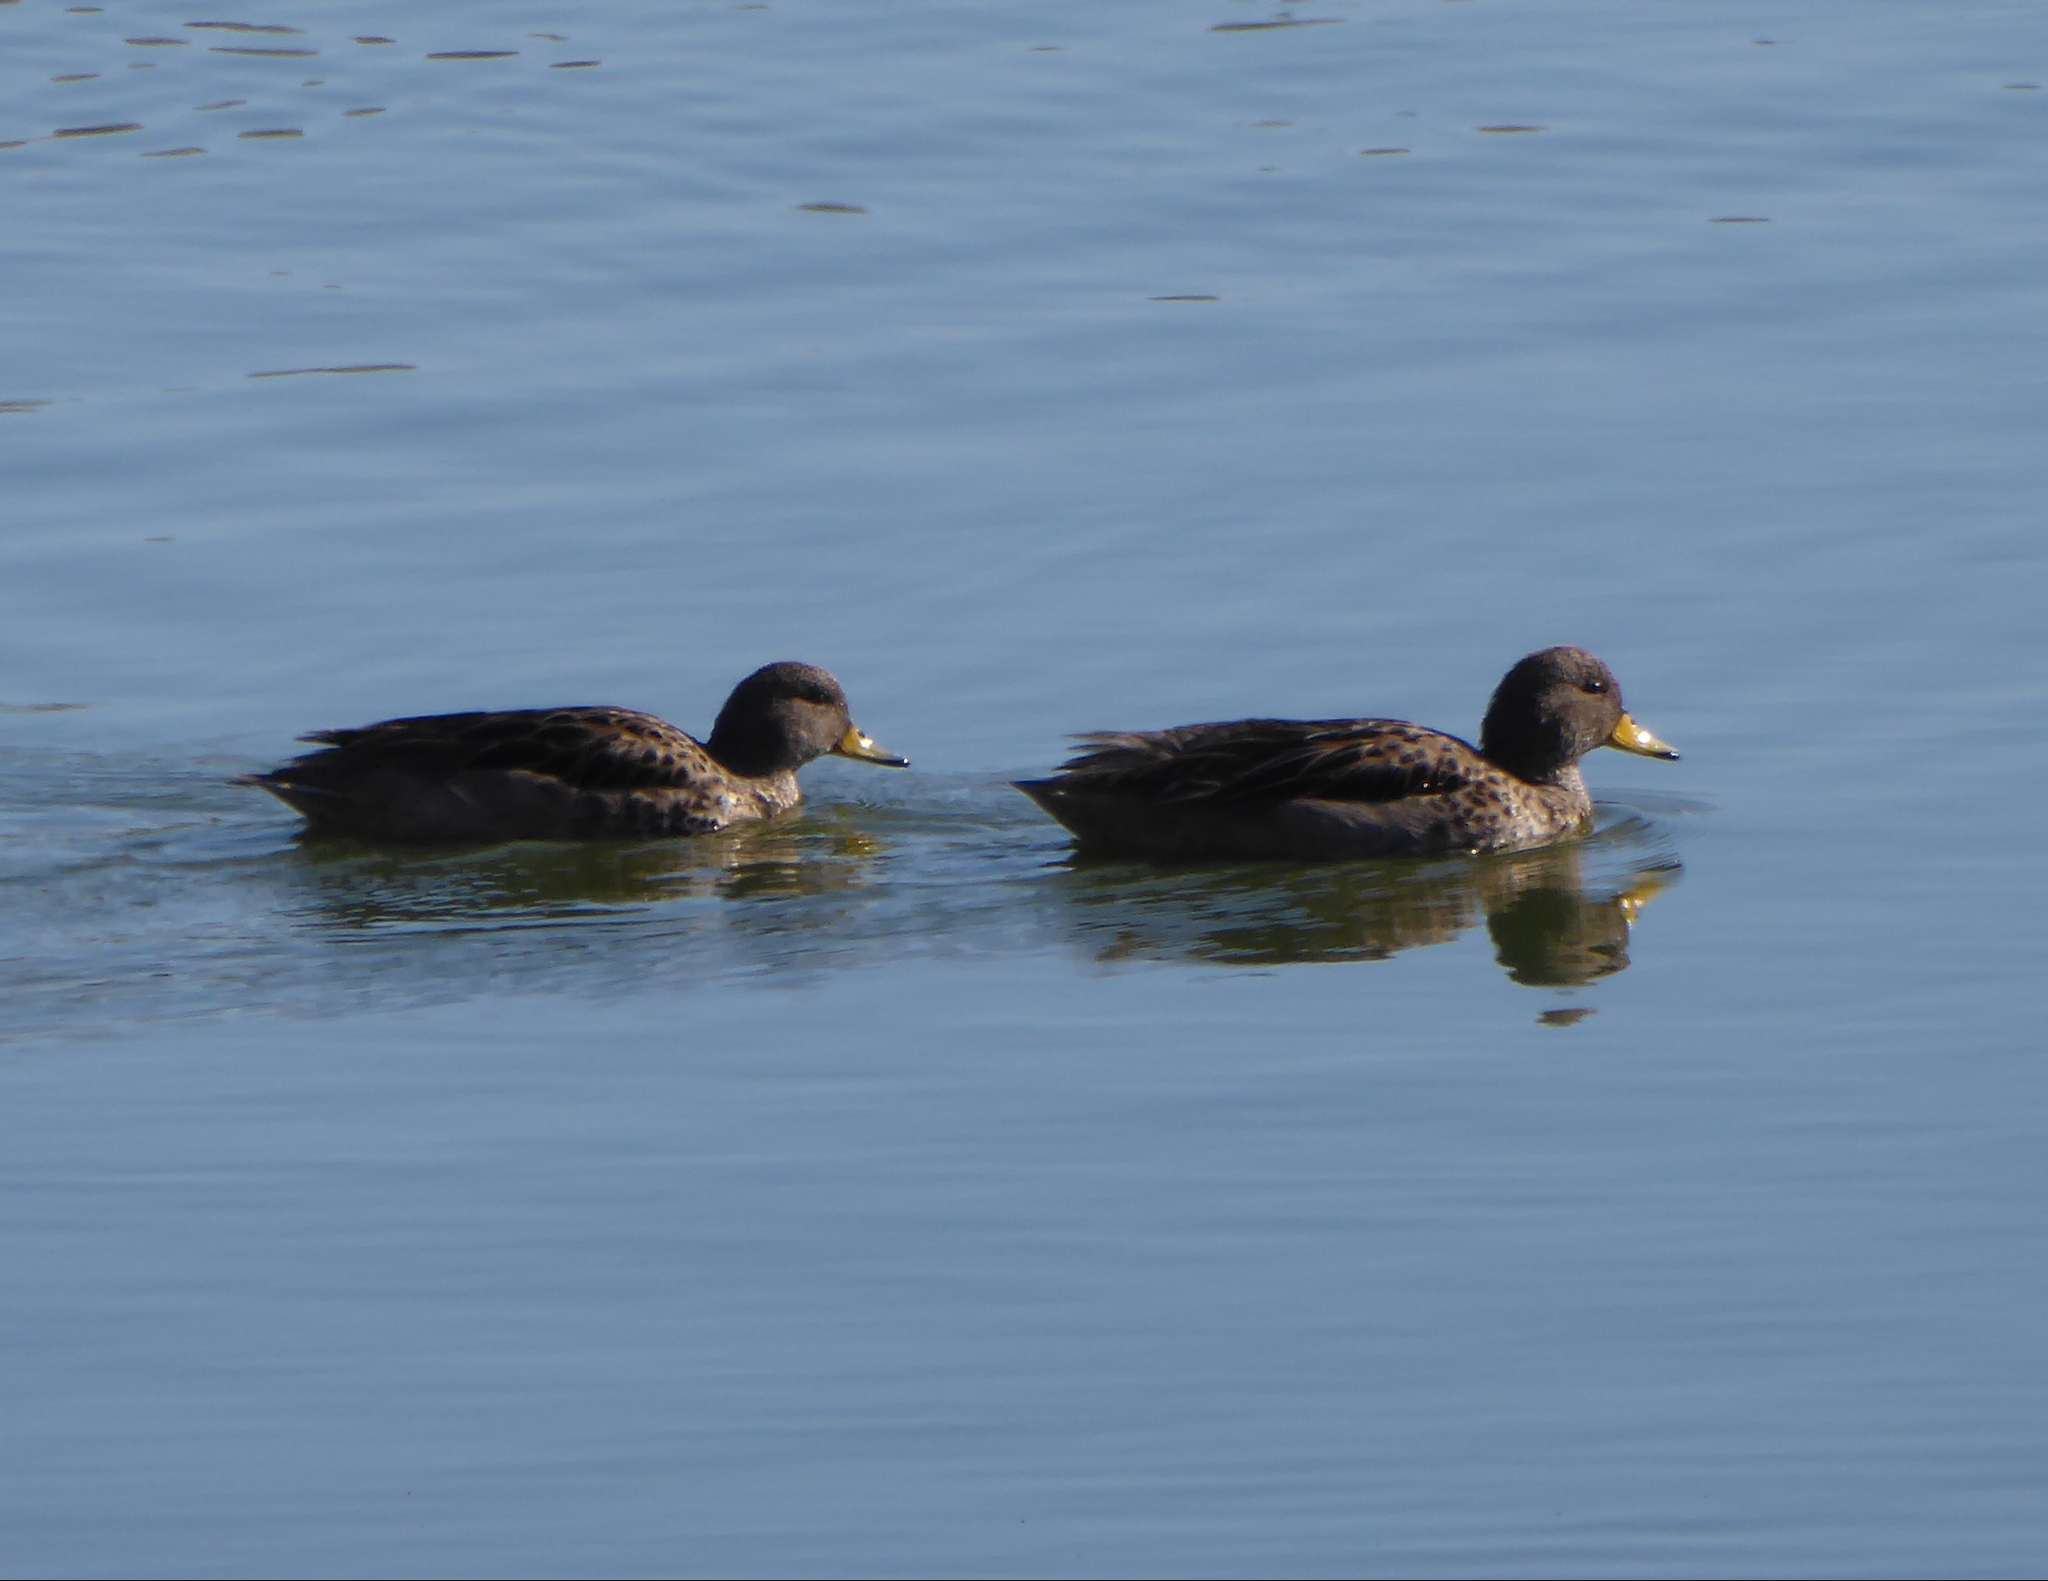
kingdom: Animalia
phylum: Chordata
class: Aves
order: Anseriformes
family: Anatidae
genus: Anas
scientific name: Anas flavirostris
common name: Yellow-billed teal
